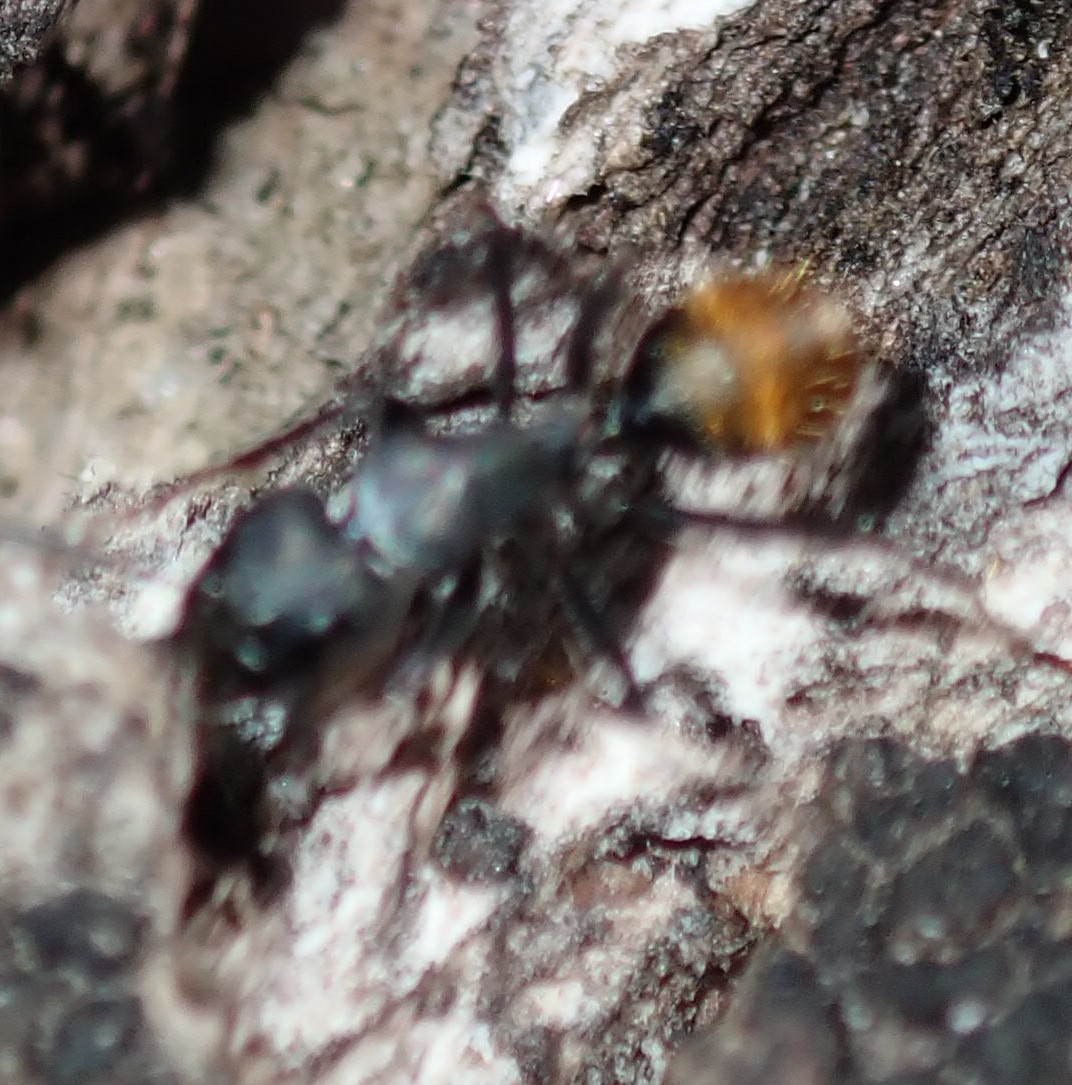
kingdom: Animalia
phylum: Arthropoda
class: Insecta
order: Hymenoptera
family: Formicidae
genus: Camponotus
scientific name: Camponotus aeneopilosus
